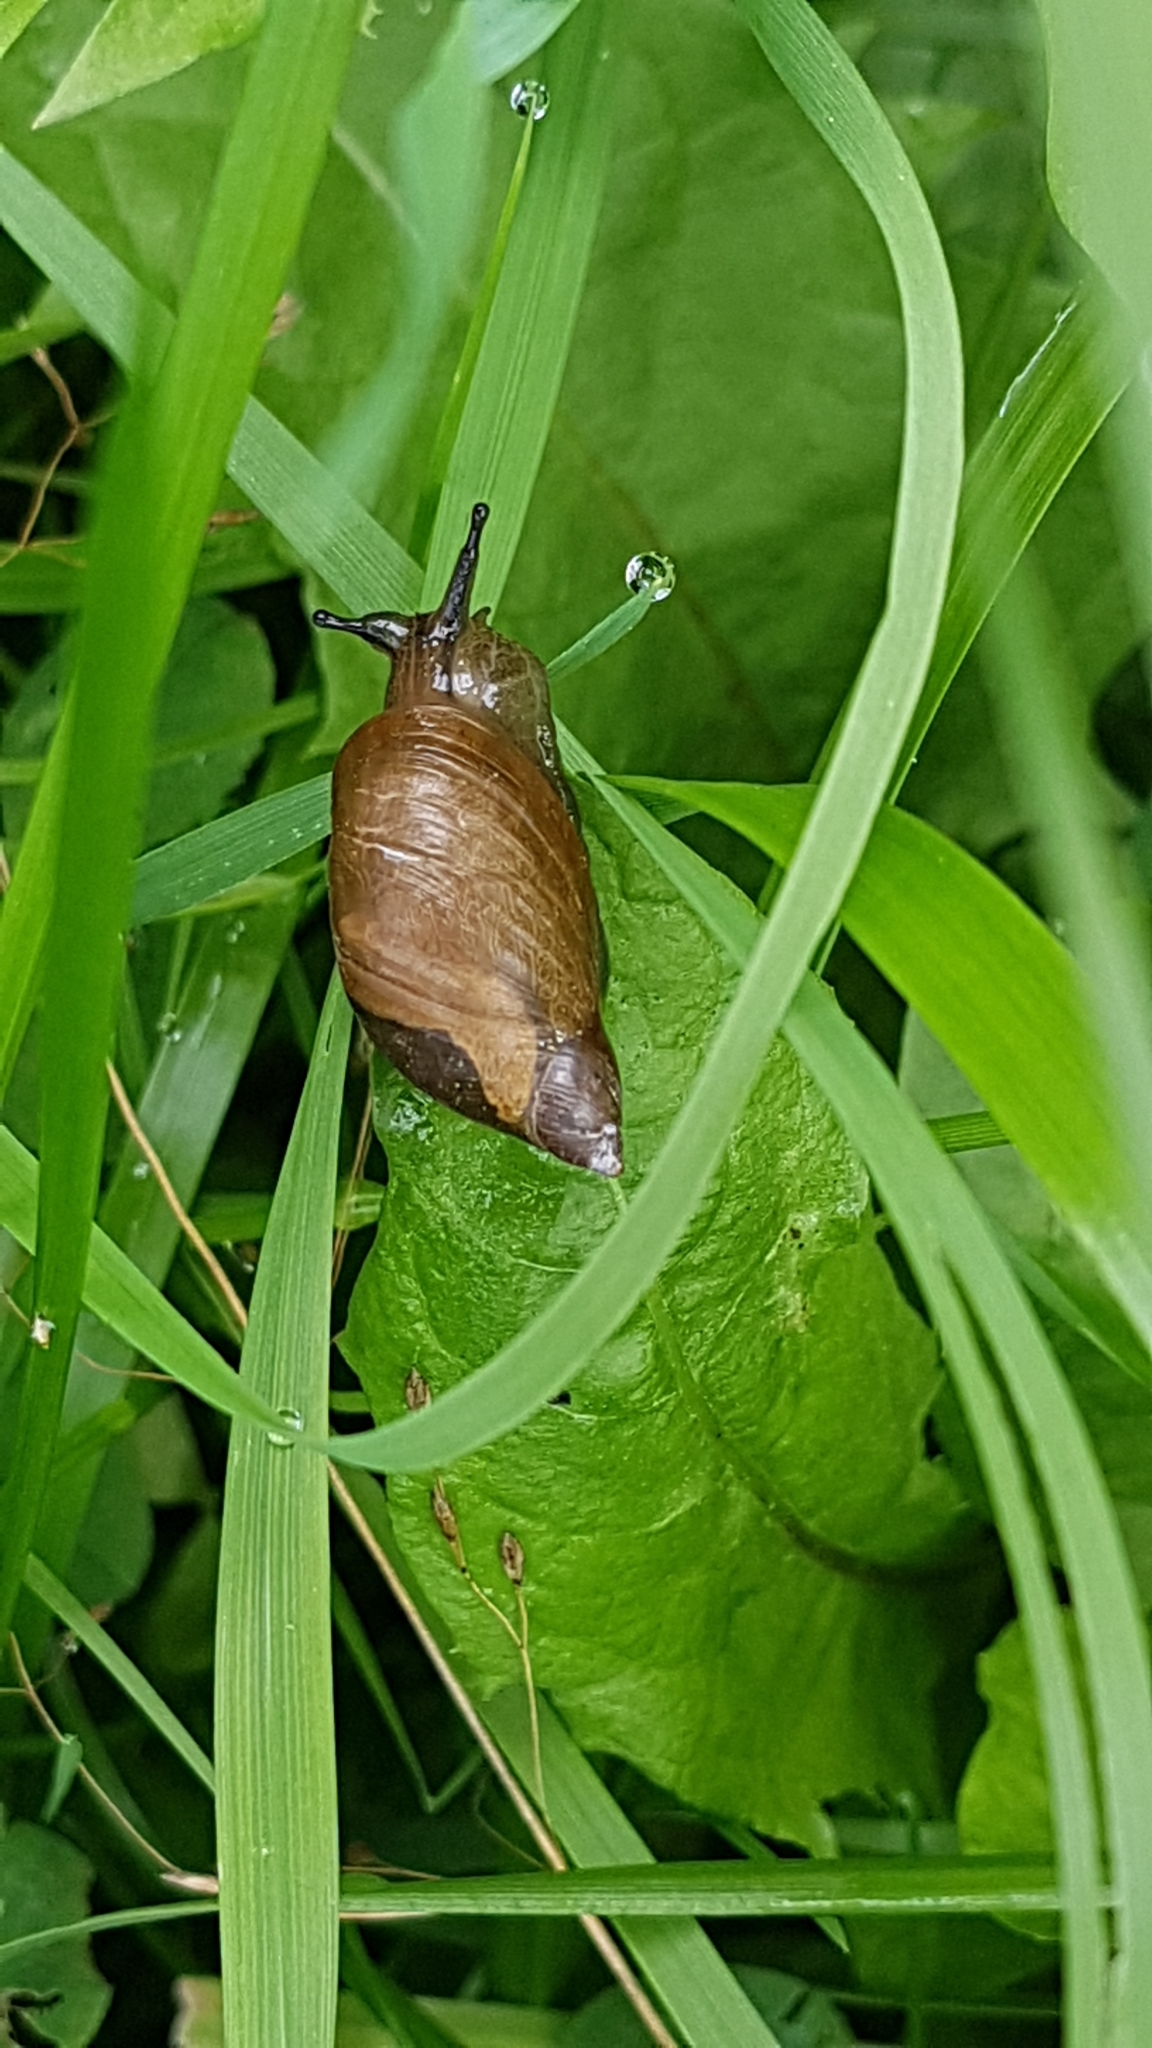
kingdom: Animalia
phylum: Mollusca
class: Gastropoda
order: Stylommatophora
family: Succineidae
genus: Succinea
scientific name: Succinea putris
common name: European ambersnail
